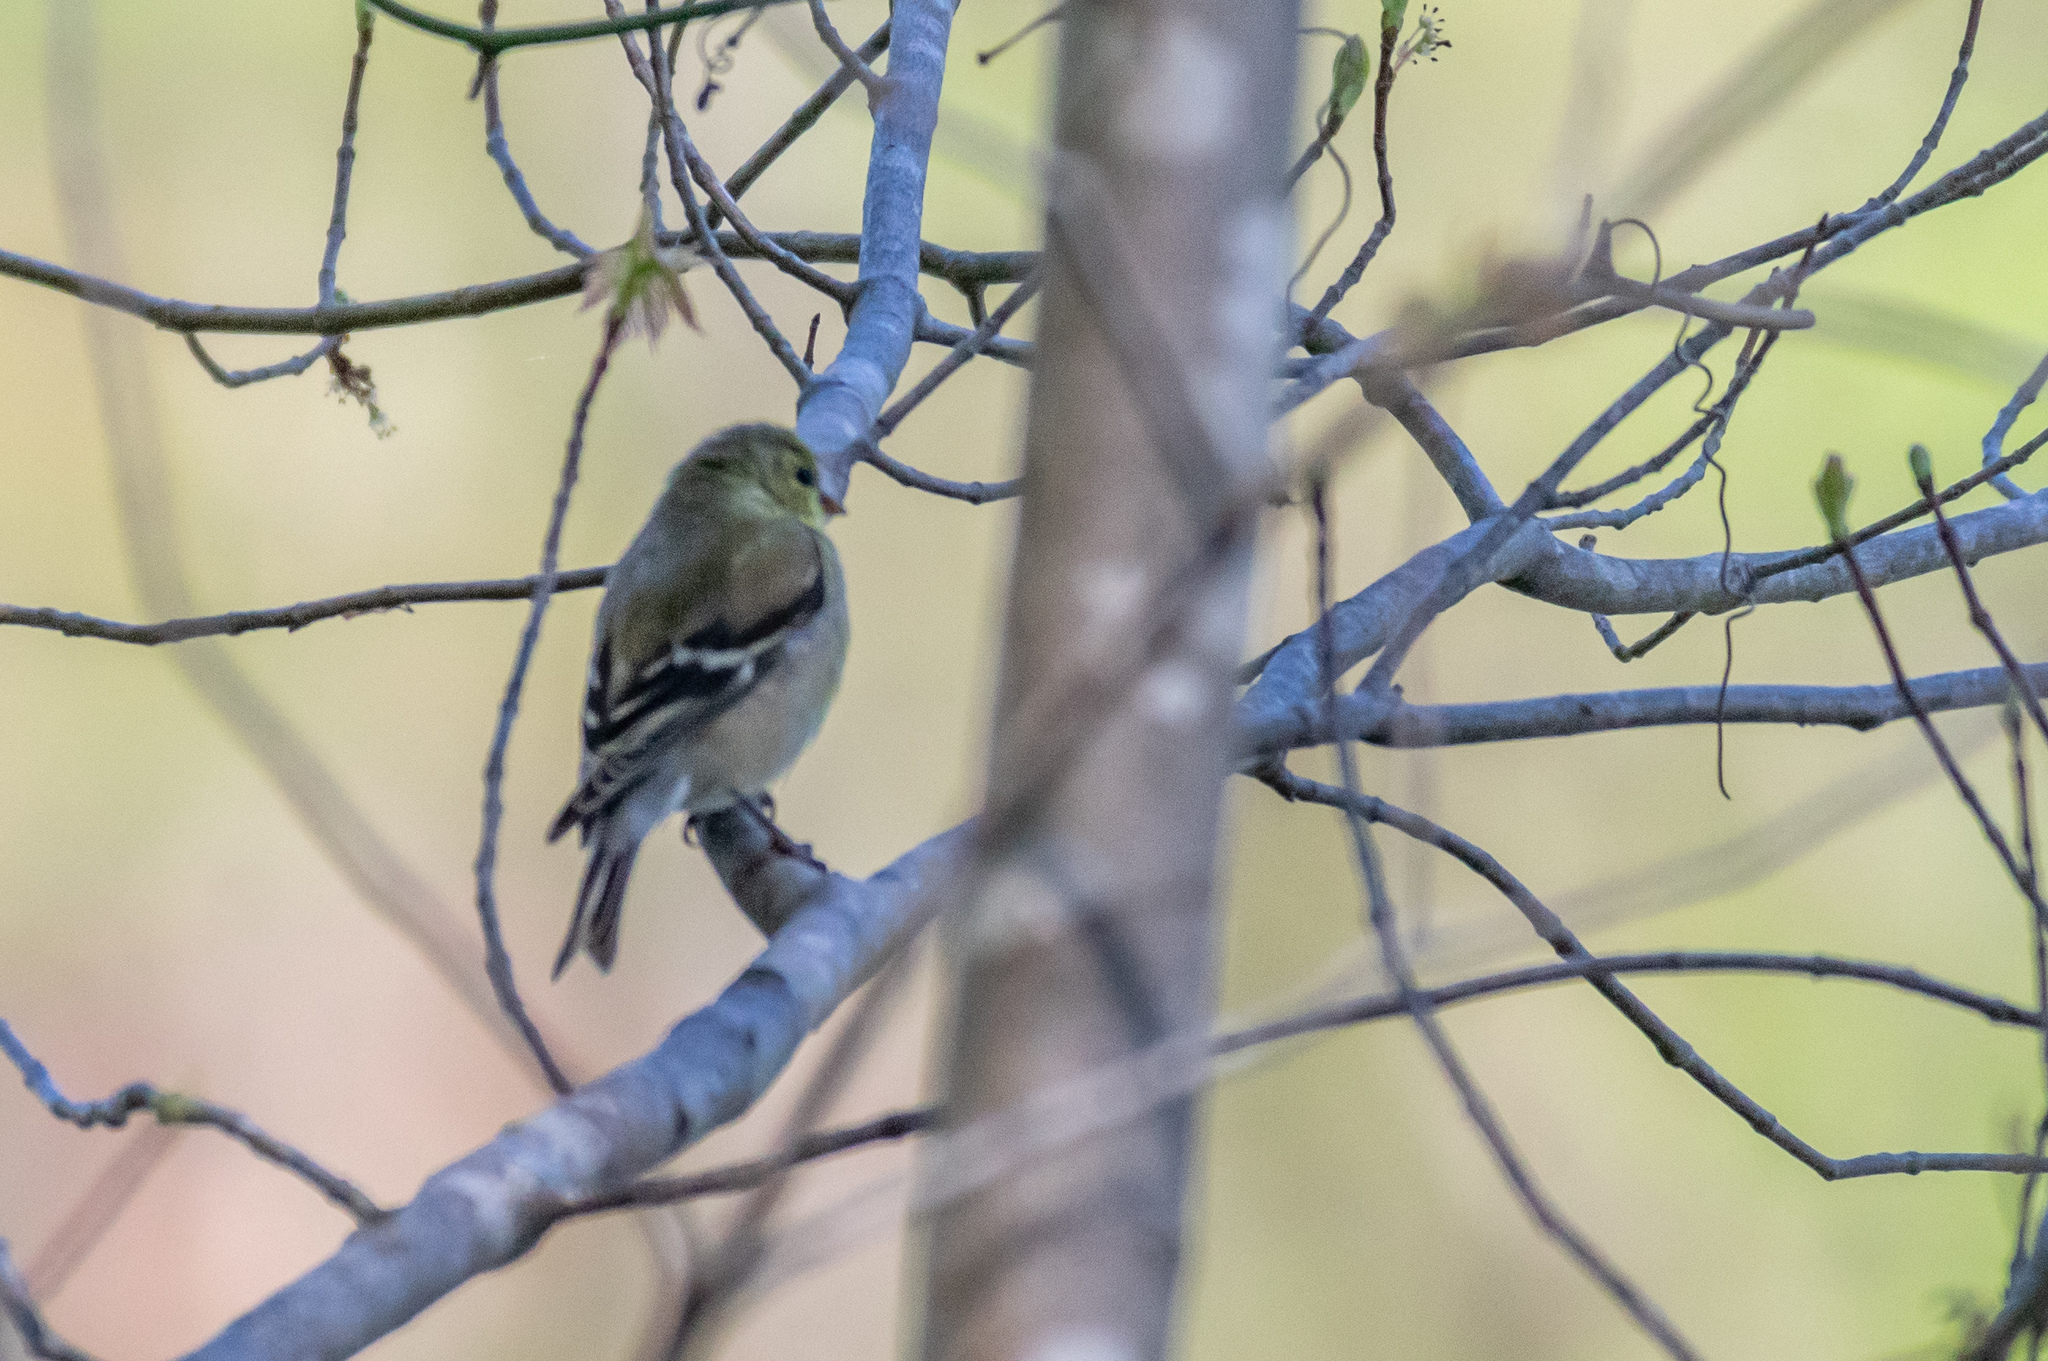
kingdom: Animalia
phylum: Chordata
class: Aves
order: Passeriformes
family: Fringillidae
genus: Spinus
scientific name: Spinus tristis
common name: American goldfinch
